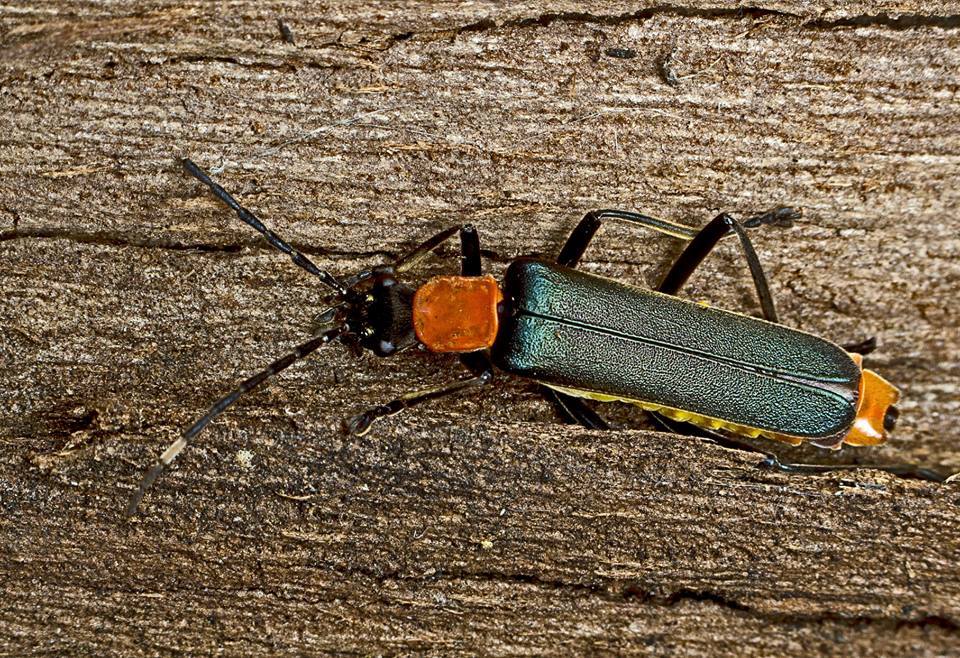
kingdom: Animalia
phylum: Arthropoda
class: Insecta
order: Coleoptera
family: Cantharidae
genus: Chauliognathus
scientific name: Chauliognathus
